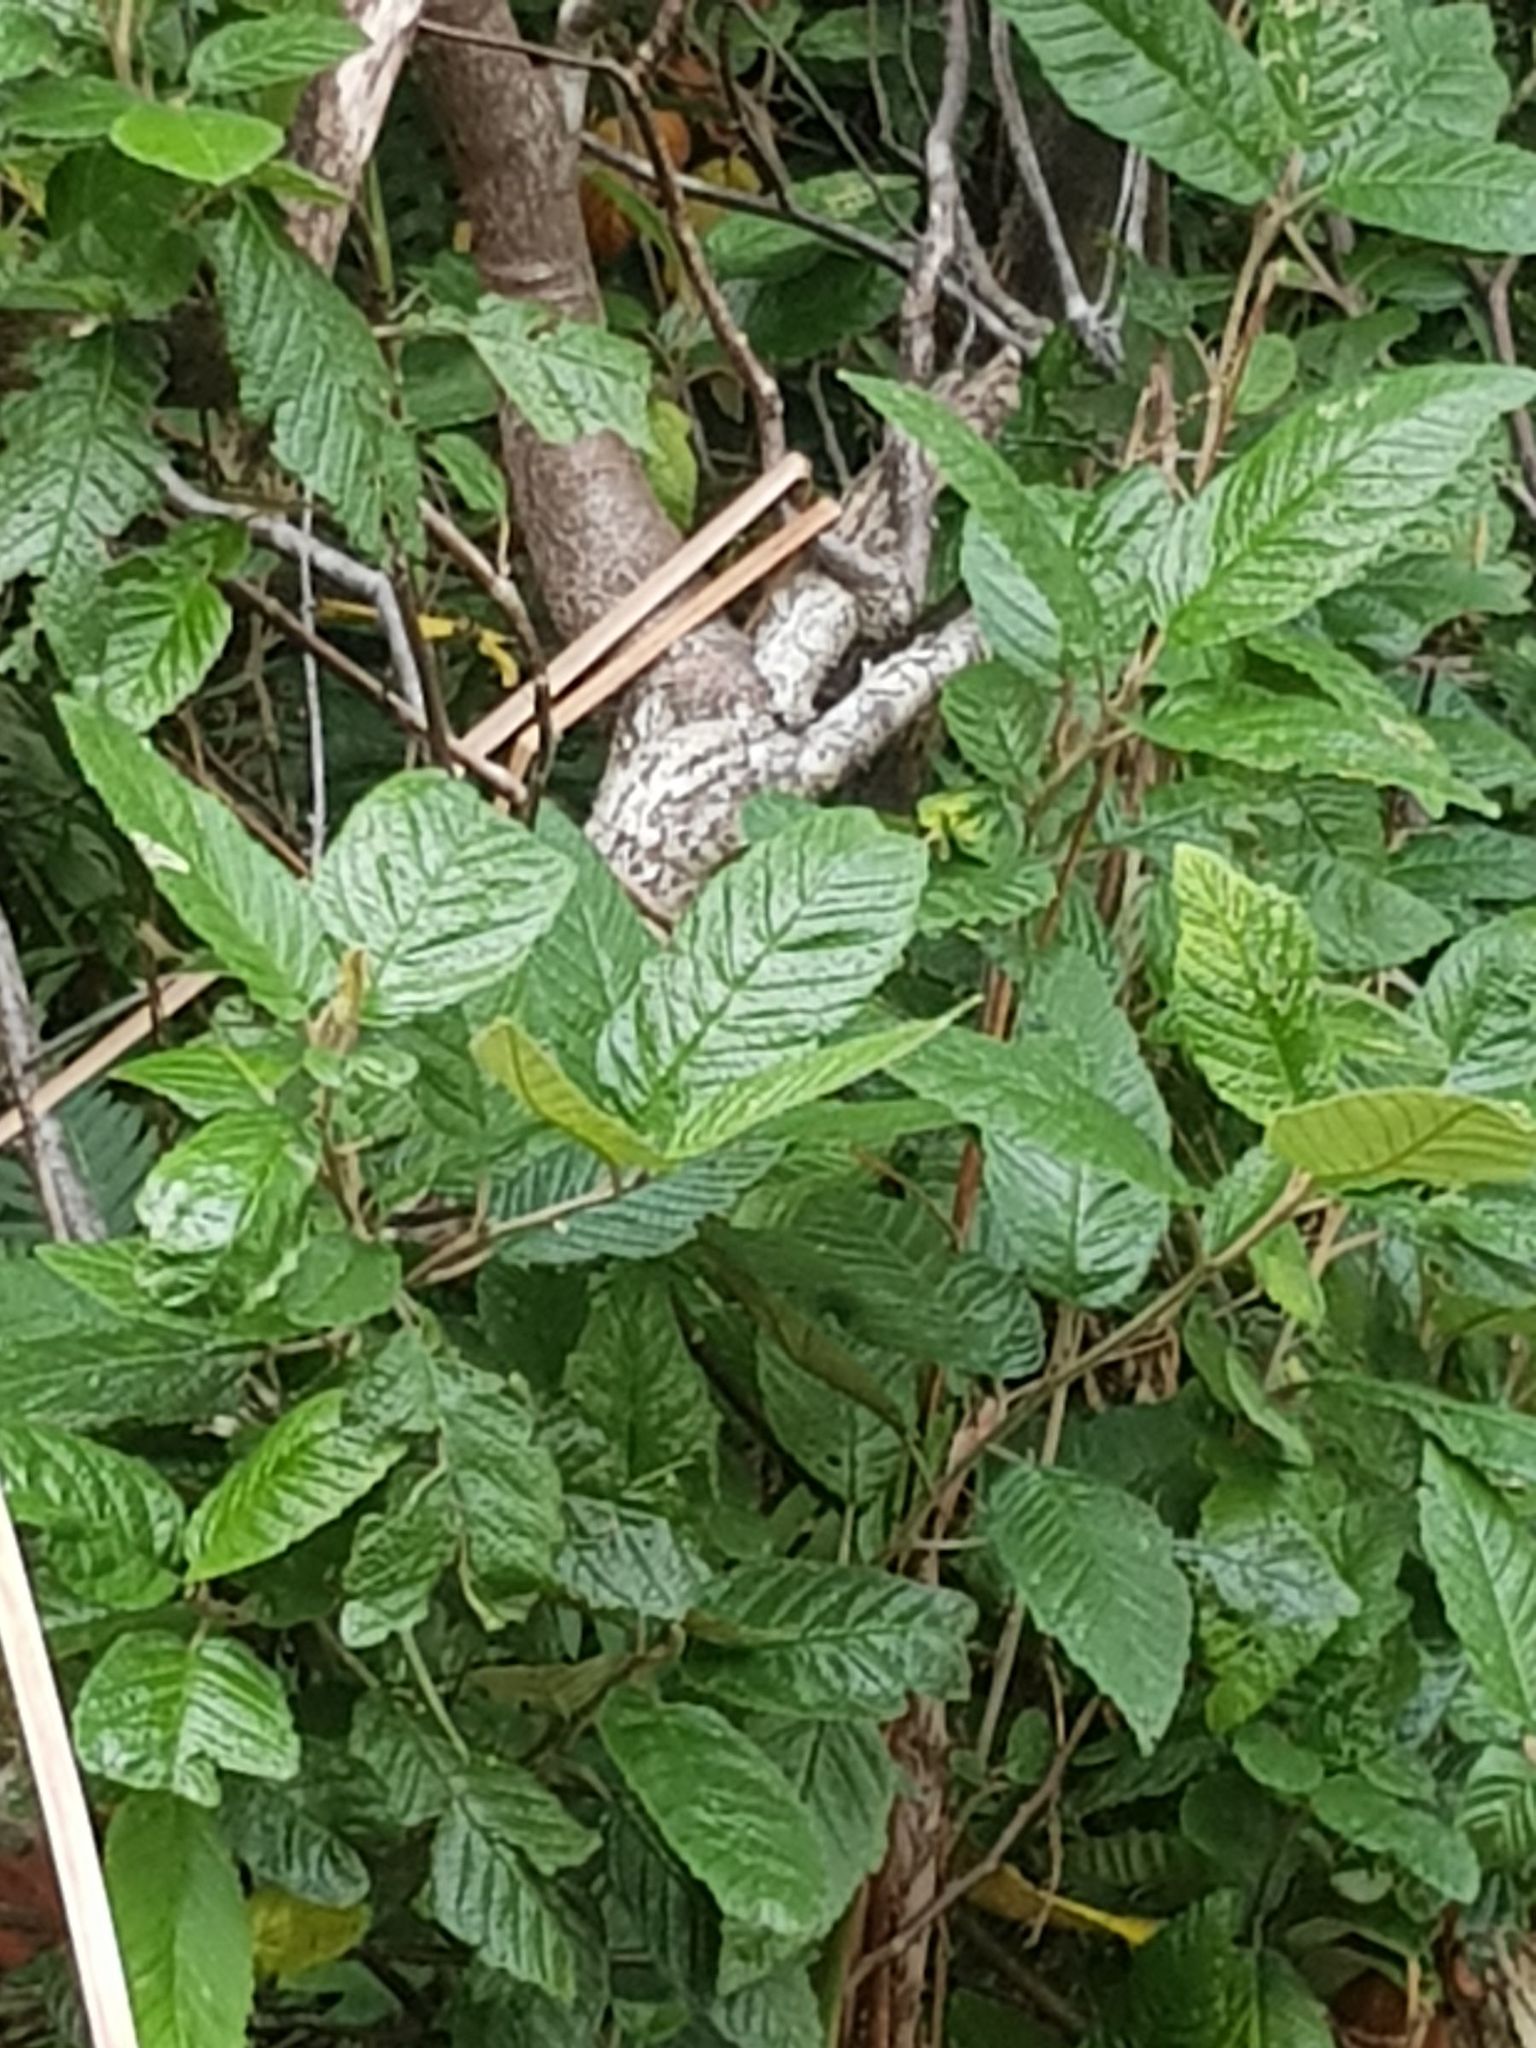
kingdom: Plantae
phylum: Tracheophyta
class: Magnoliopsida
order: Rosales
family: Rhamnaceae
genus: Pomaderris
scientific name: Pomaderris apetala
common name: Hazel pomaderris
